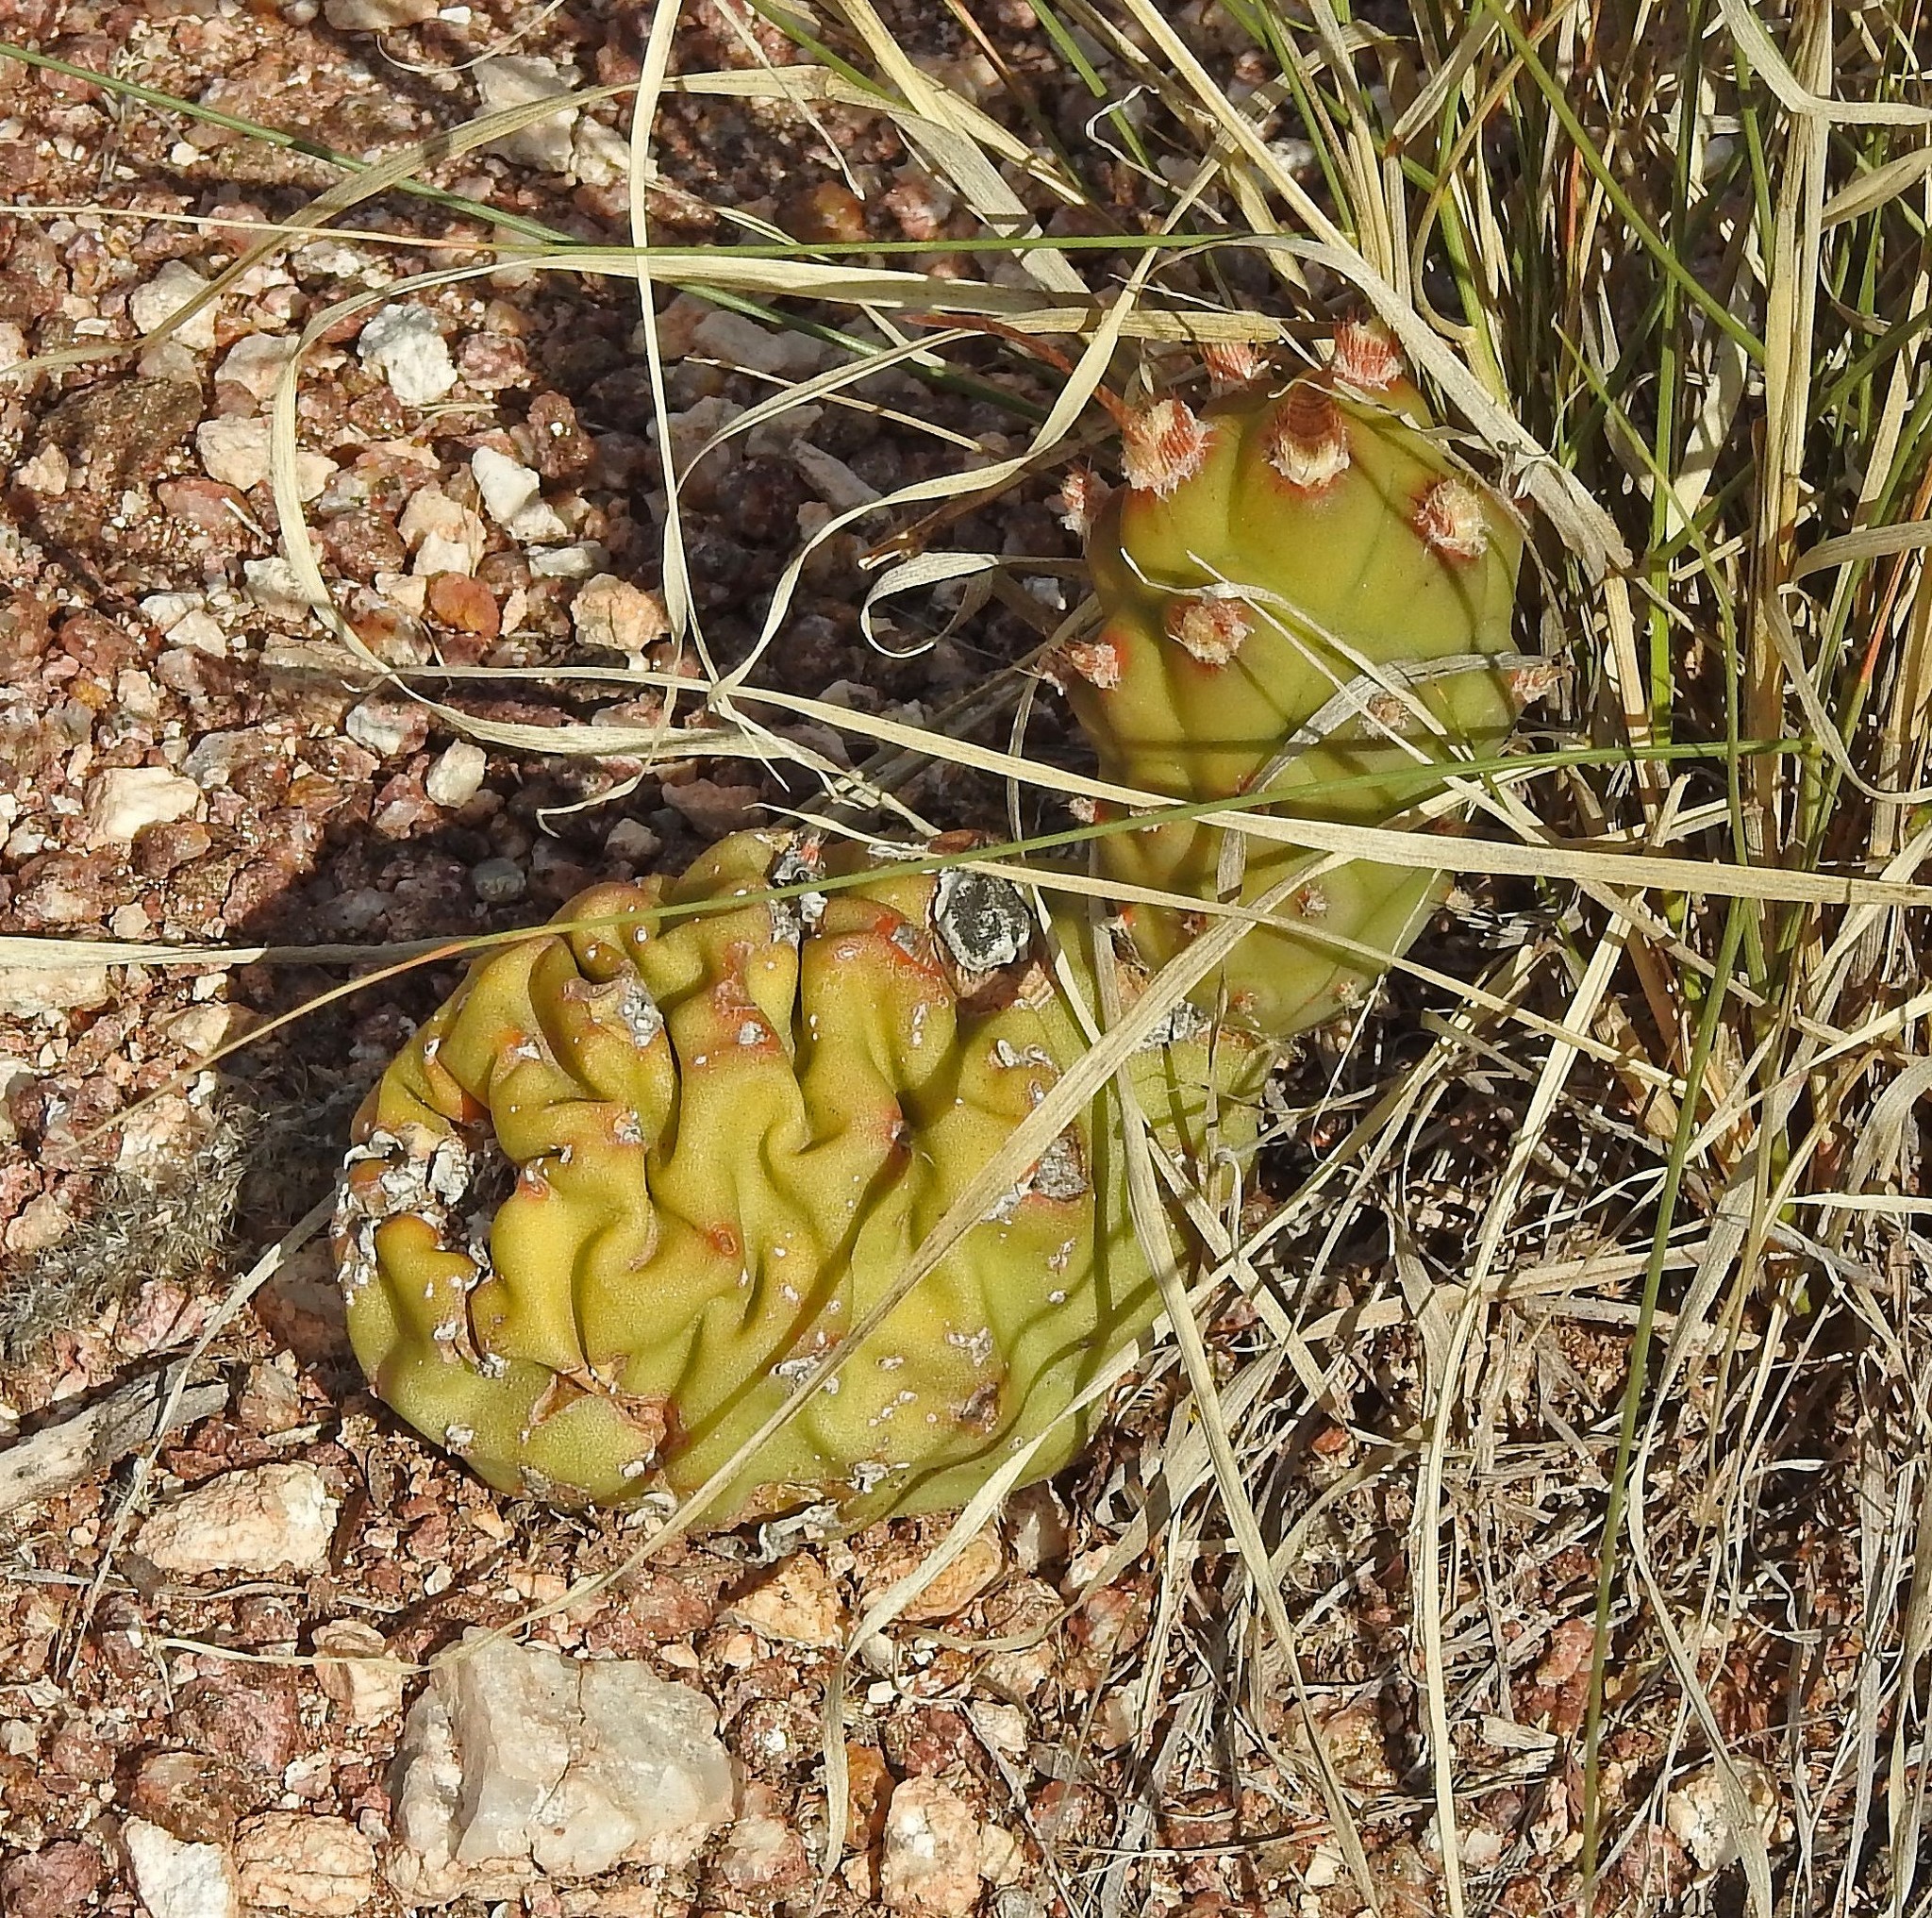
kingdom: Plantae
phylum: Tracheophyta
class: Magnoliopsida
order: Caryophyllales
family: Cactaceae
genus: Tephrocactus
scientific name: Tephrocactus articulatus
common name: Paper cactus
